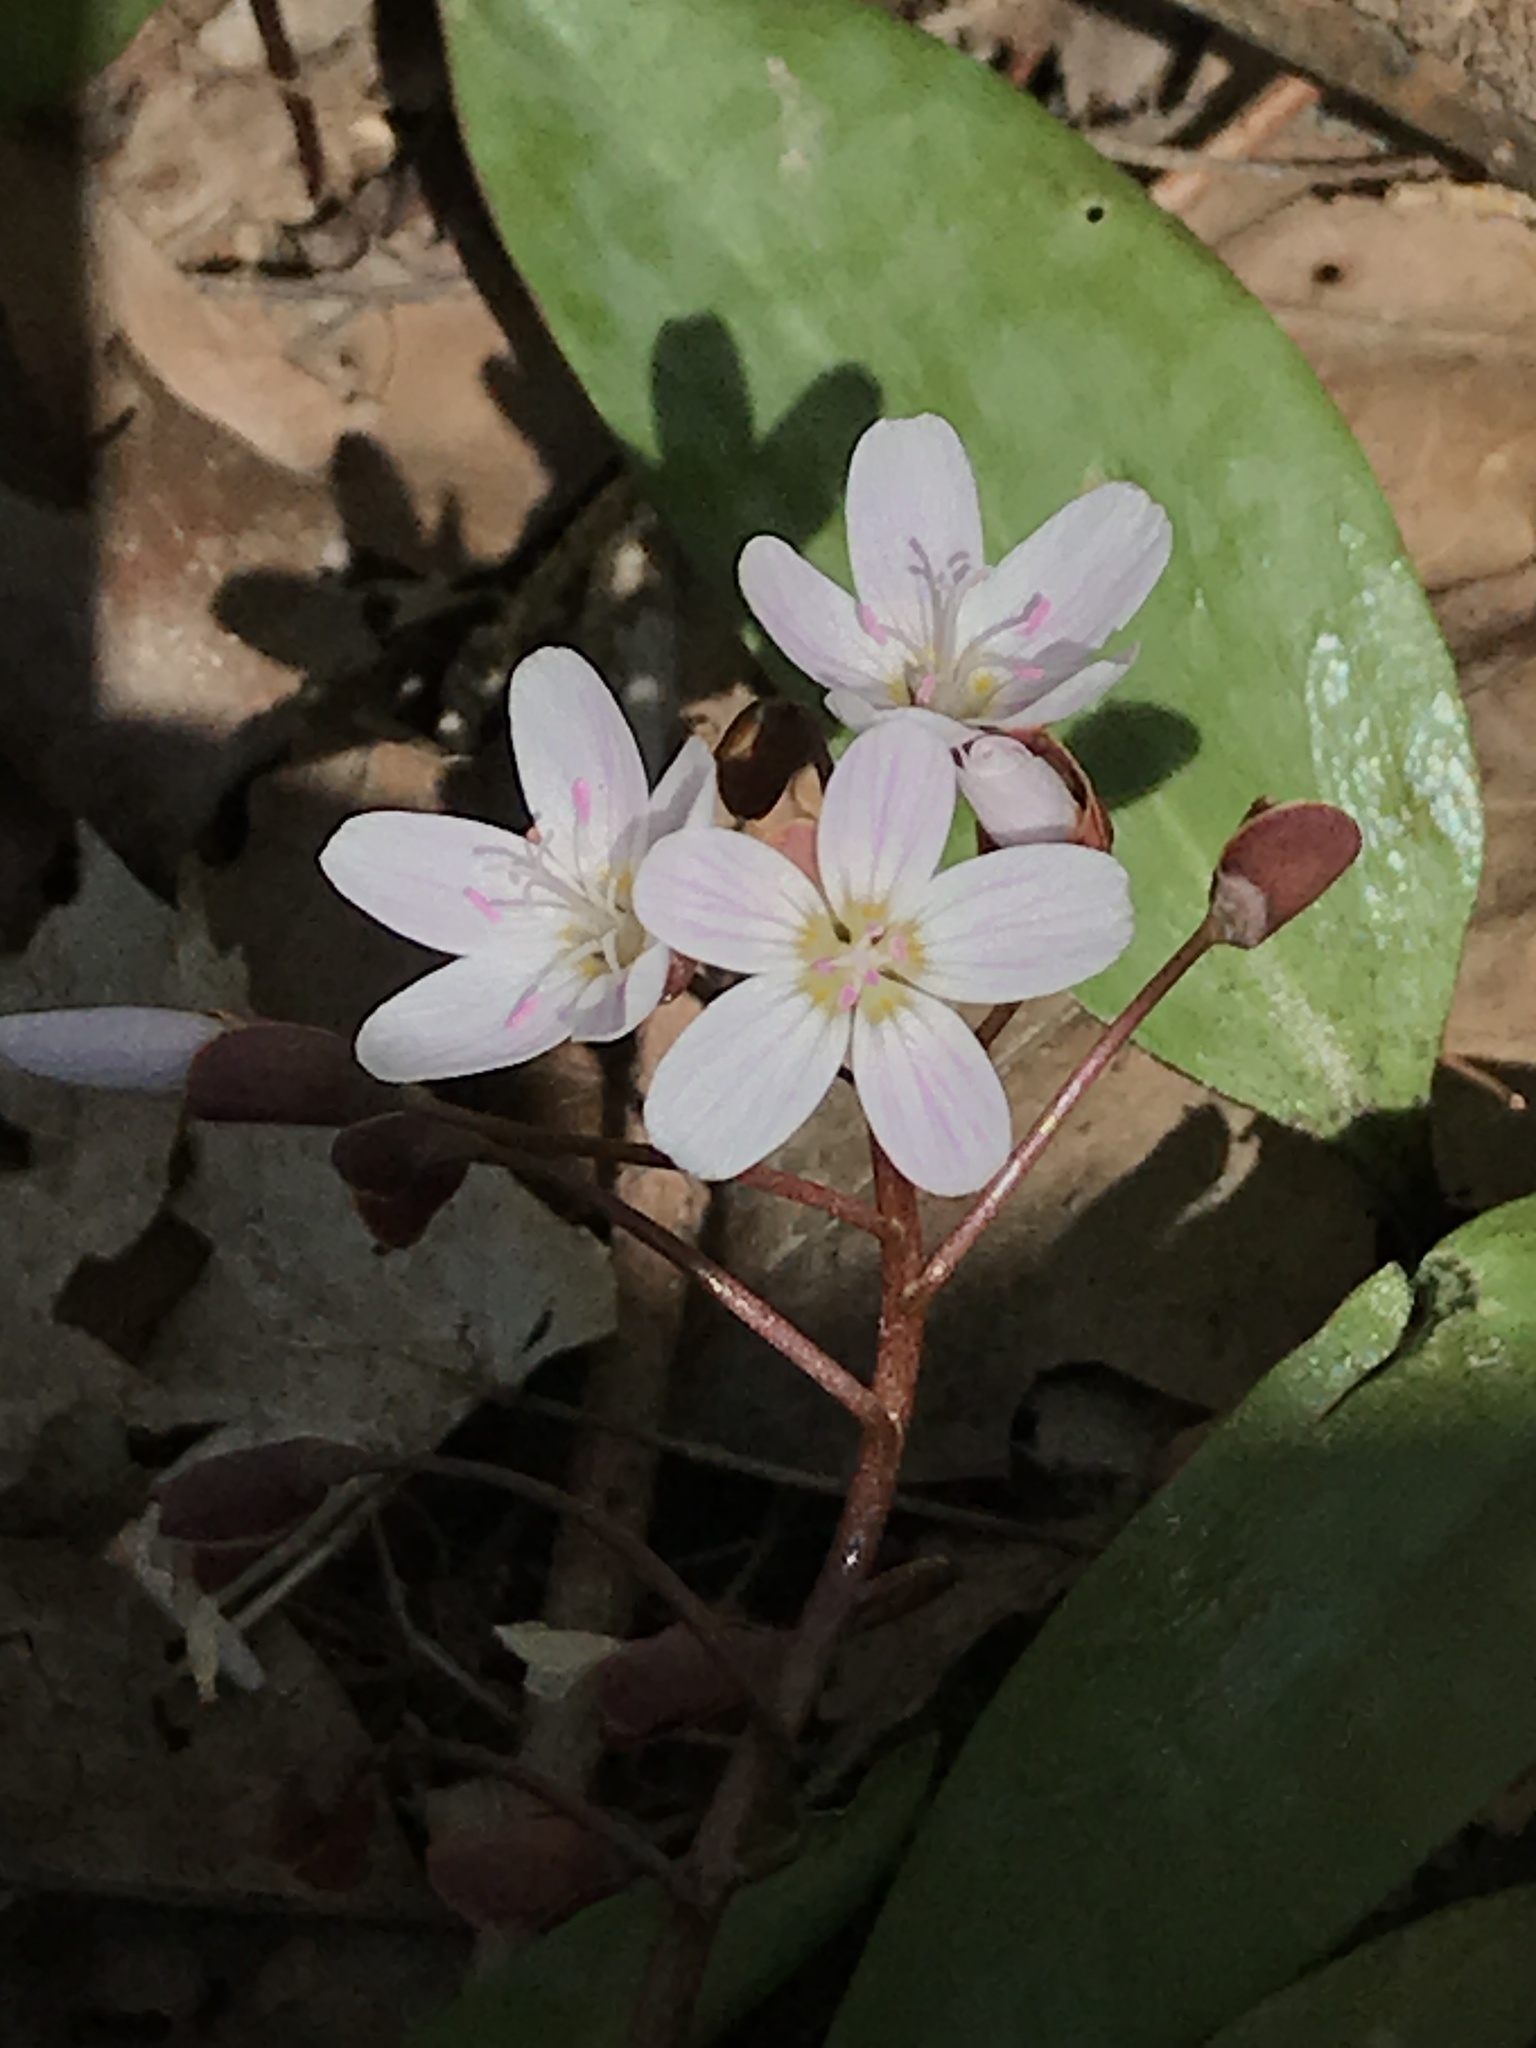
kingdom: Plantae
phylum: Tracheophyta
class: Magnoliopsida
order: Caryophyllales
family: Montiaceae
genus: Claytonia
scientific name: Claytonia virginica
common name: Virginia springbeauty
